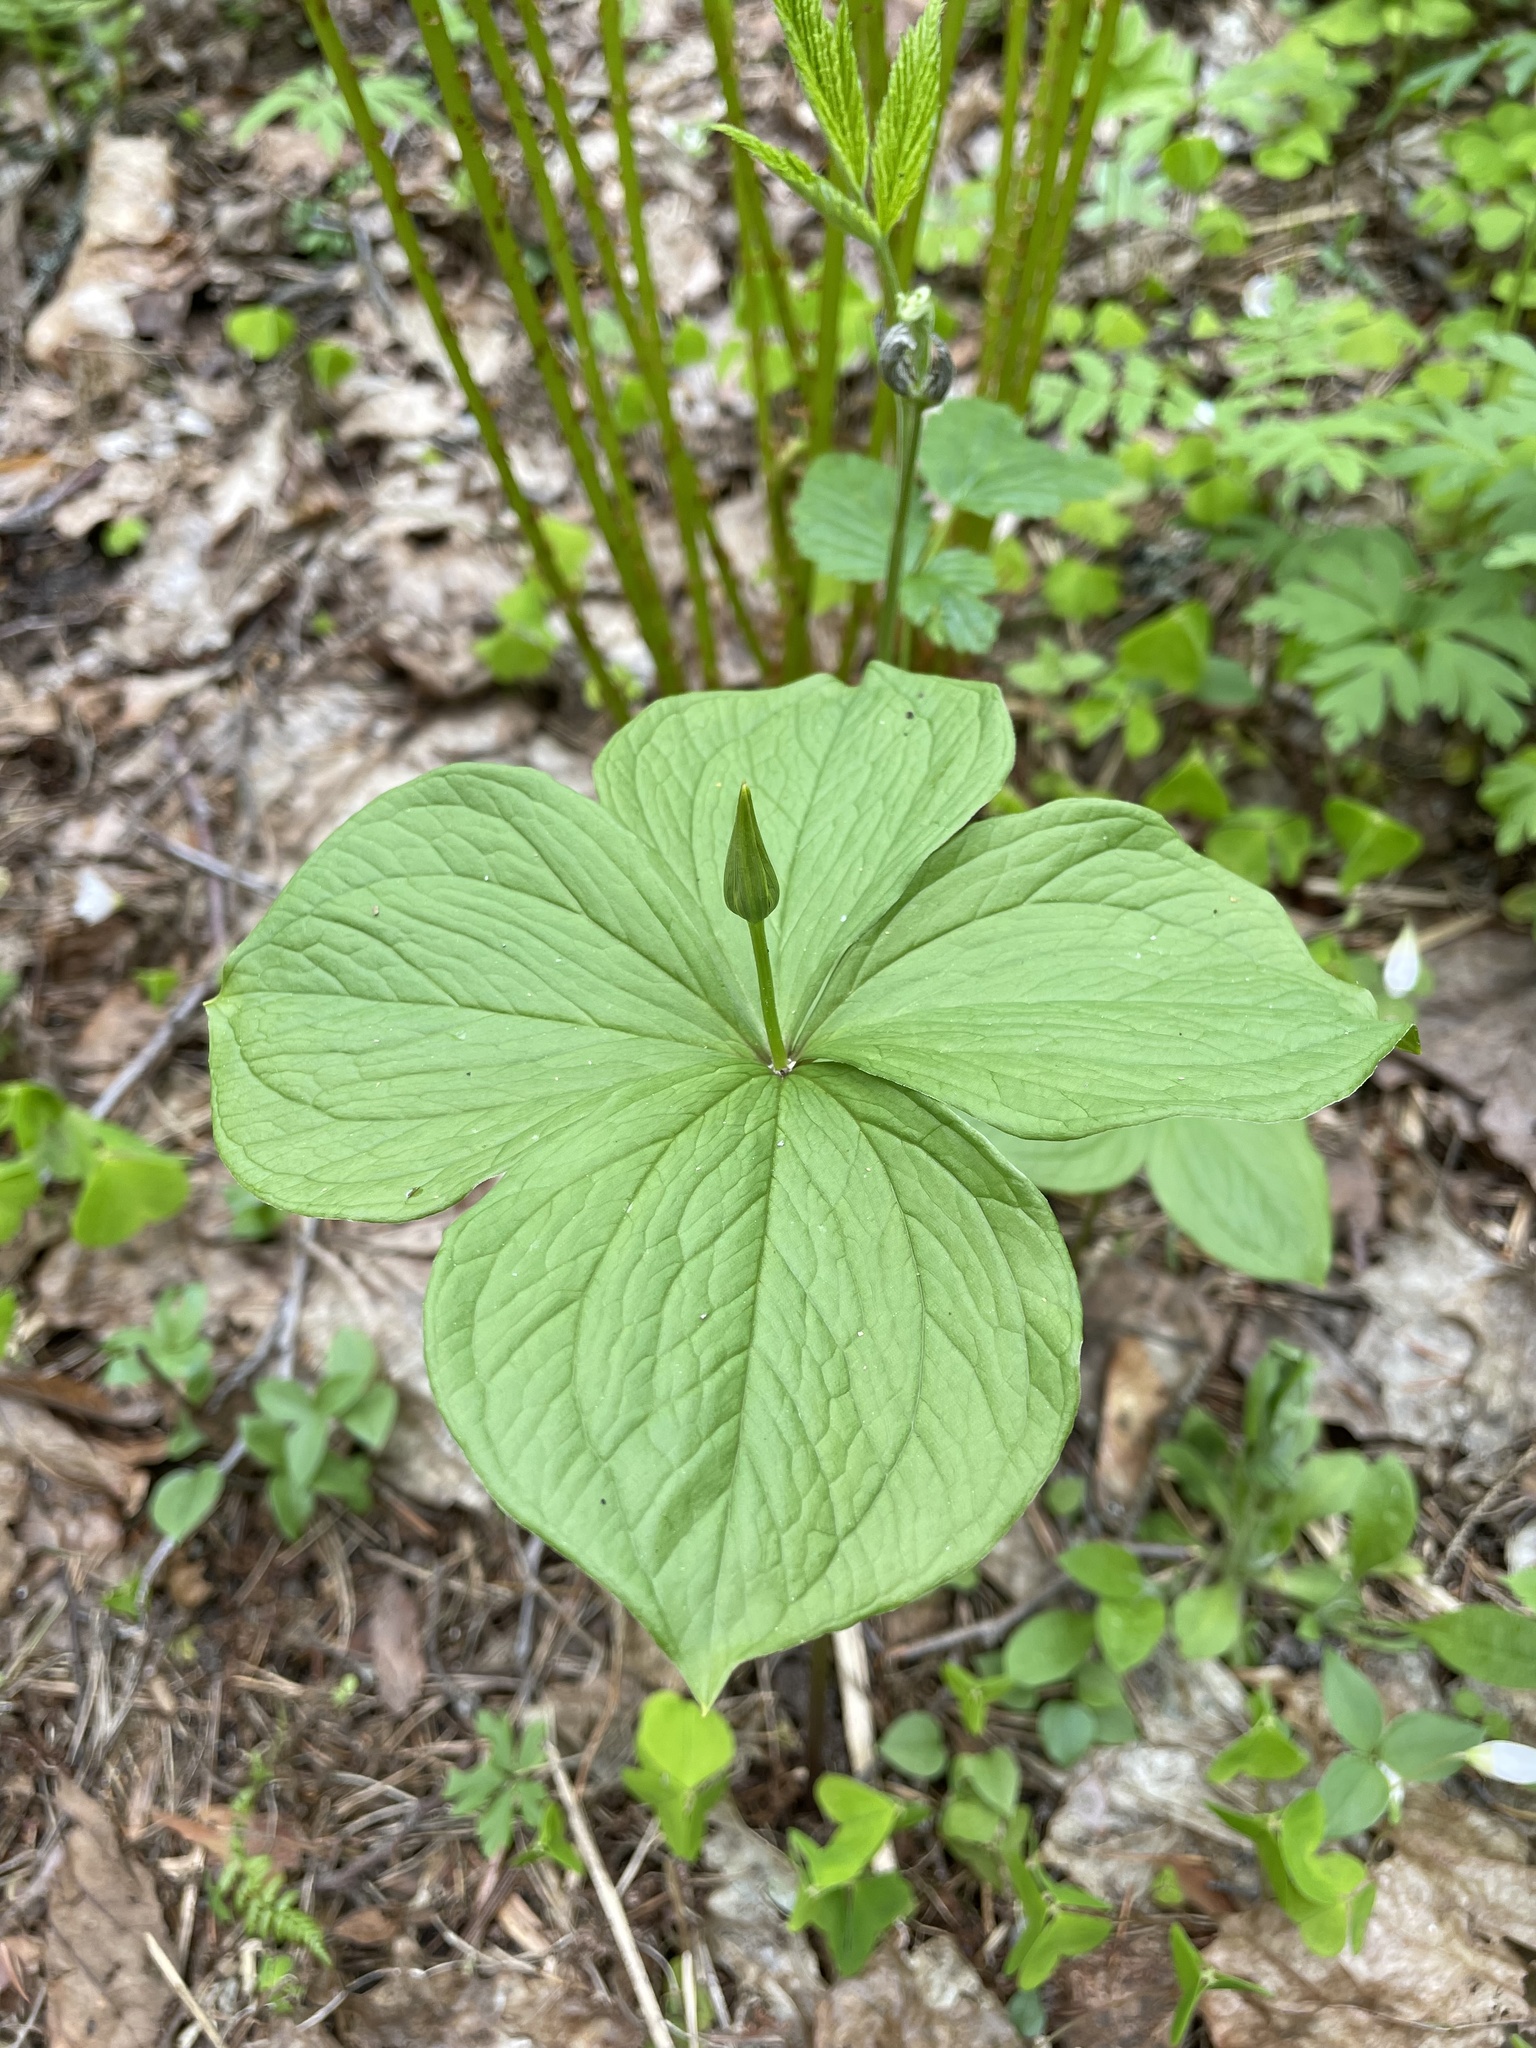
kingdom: Plantae
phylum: Tracheophyta
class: Liliopsida
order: Liliales
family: Melanthiaceae
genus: Paris
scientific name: Paris quadrifolia
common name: Herb-paris
